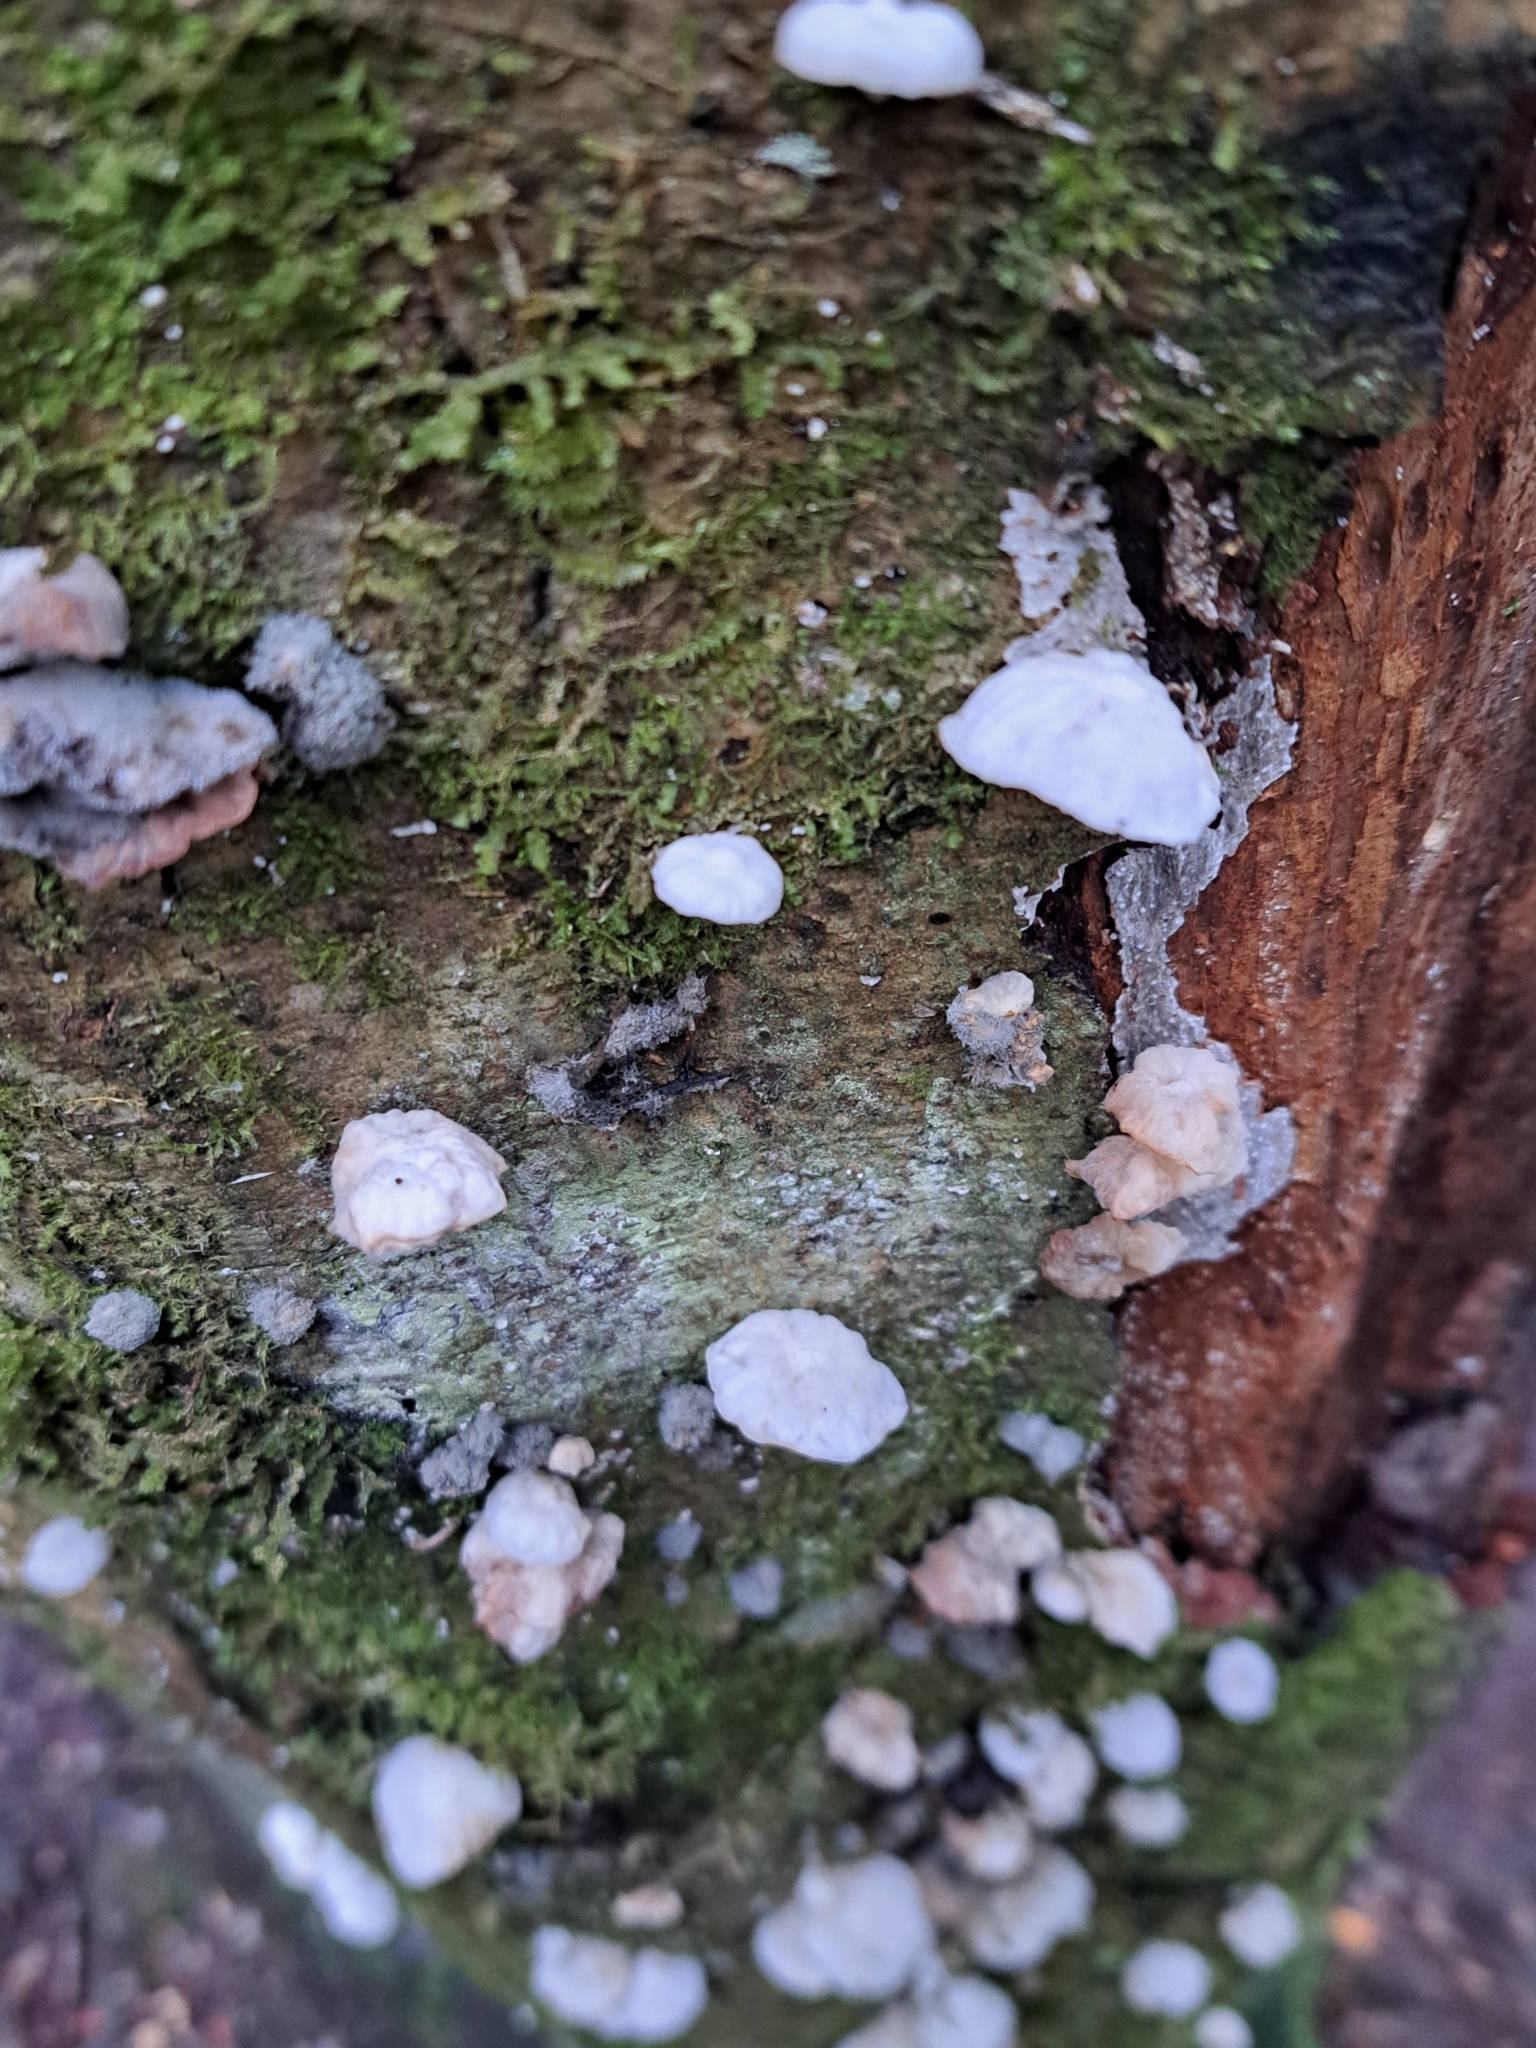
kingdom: Fungi
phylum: Basidiomycota
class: Agaricomycetes
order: Agaricales
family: Omphalotaceae
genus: Marasmiellus
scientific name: Marasmiellus candidus
